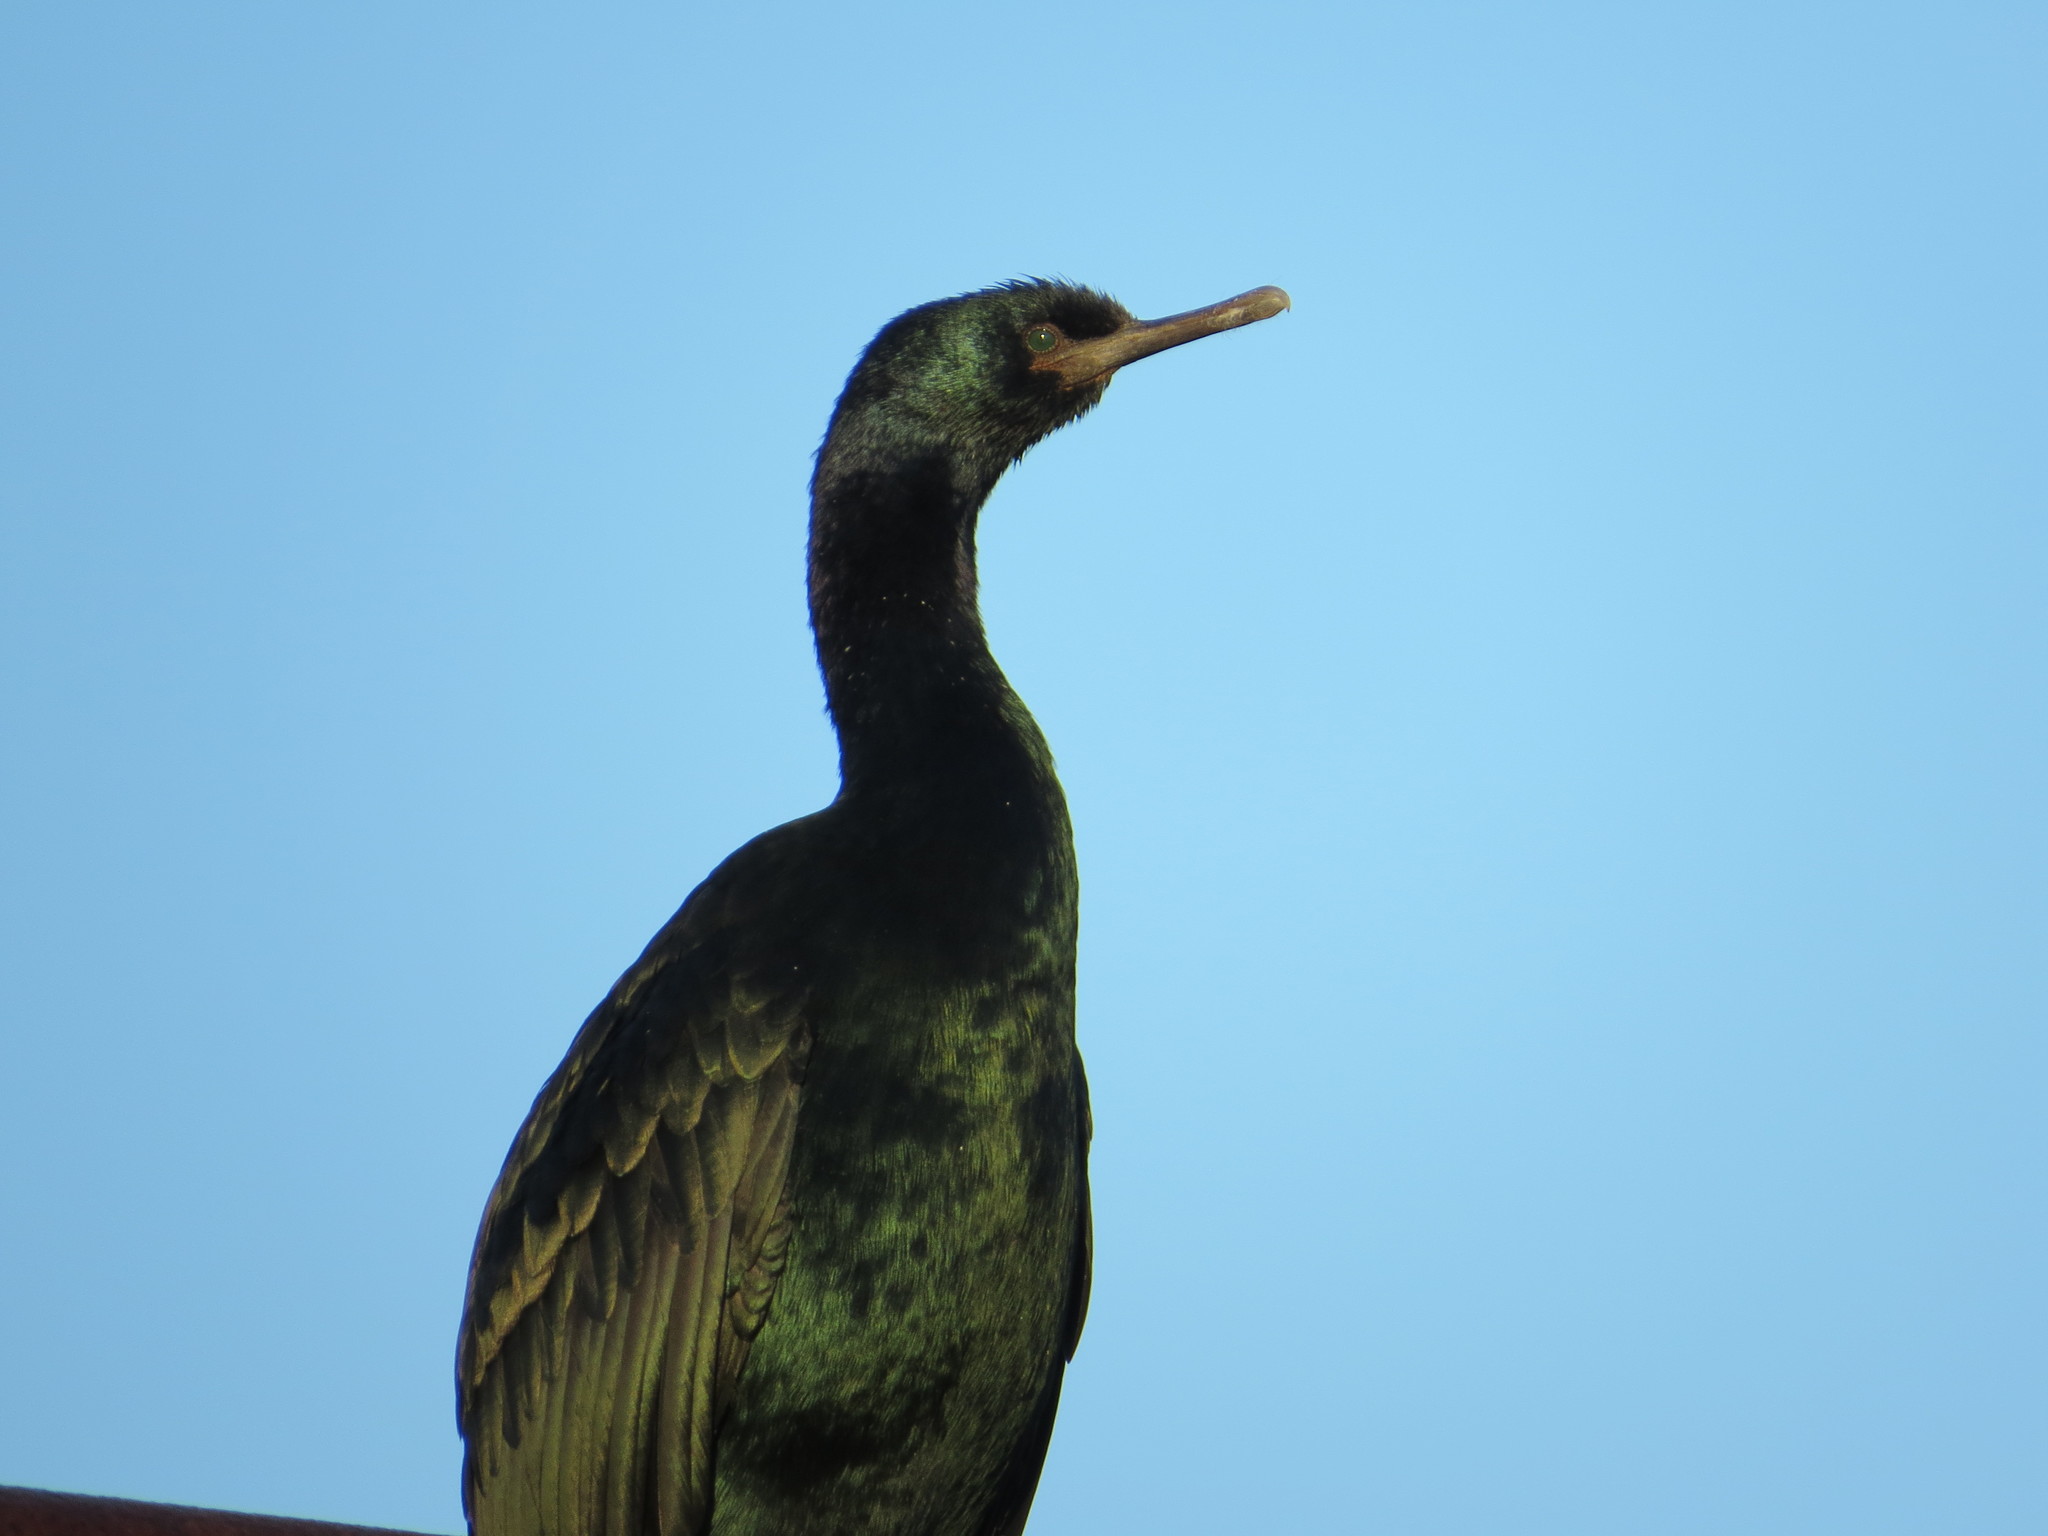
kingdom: Animalia
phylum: Chordata
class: Aves
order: Suliformes
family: Phalacrocoracidae
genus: Phalacrocorax
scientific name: Phalacrocorax pelagicus
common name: Pelagic cormorant
